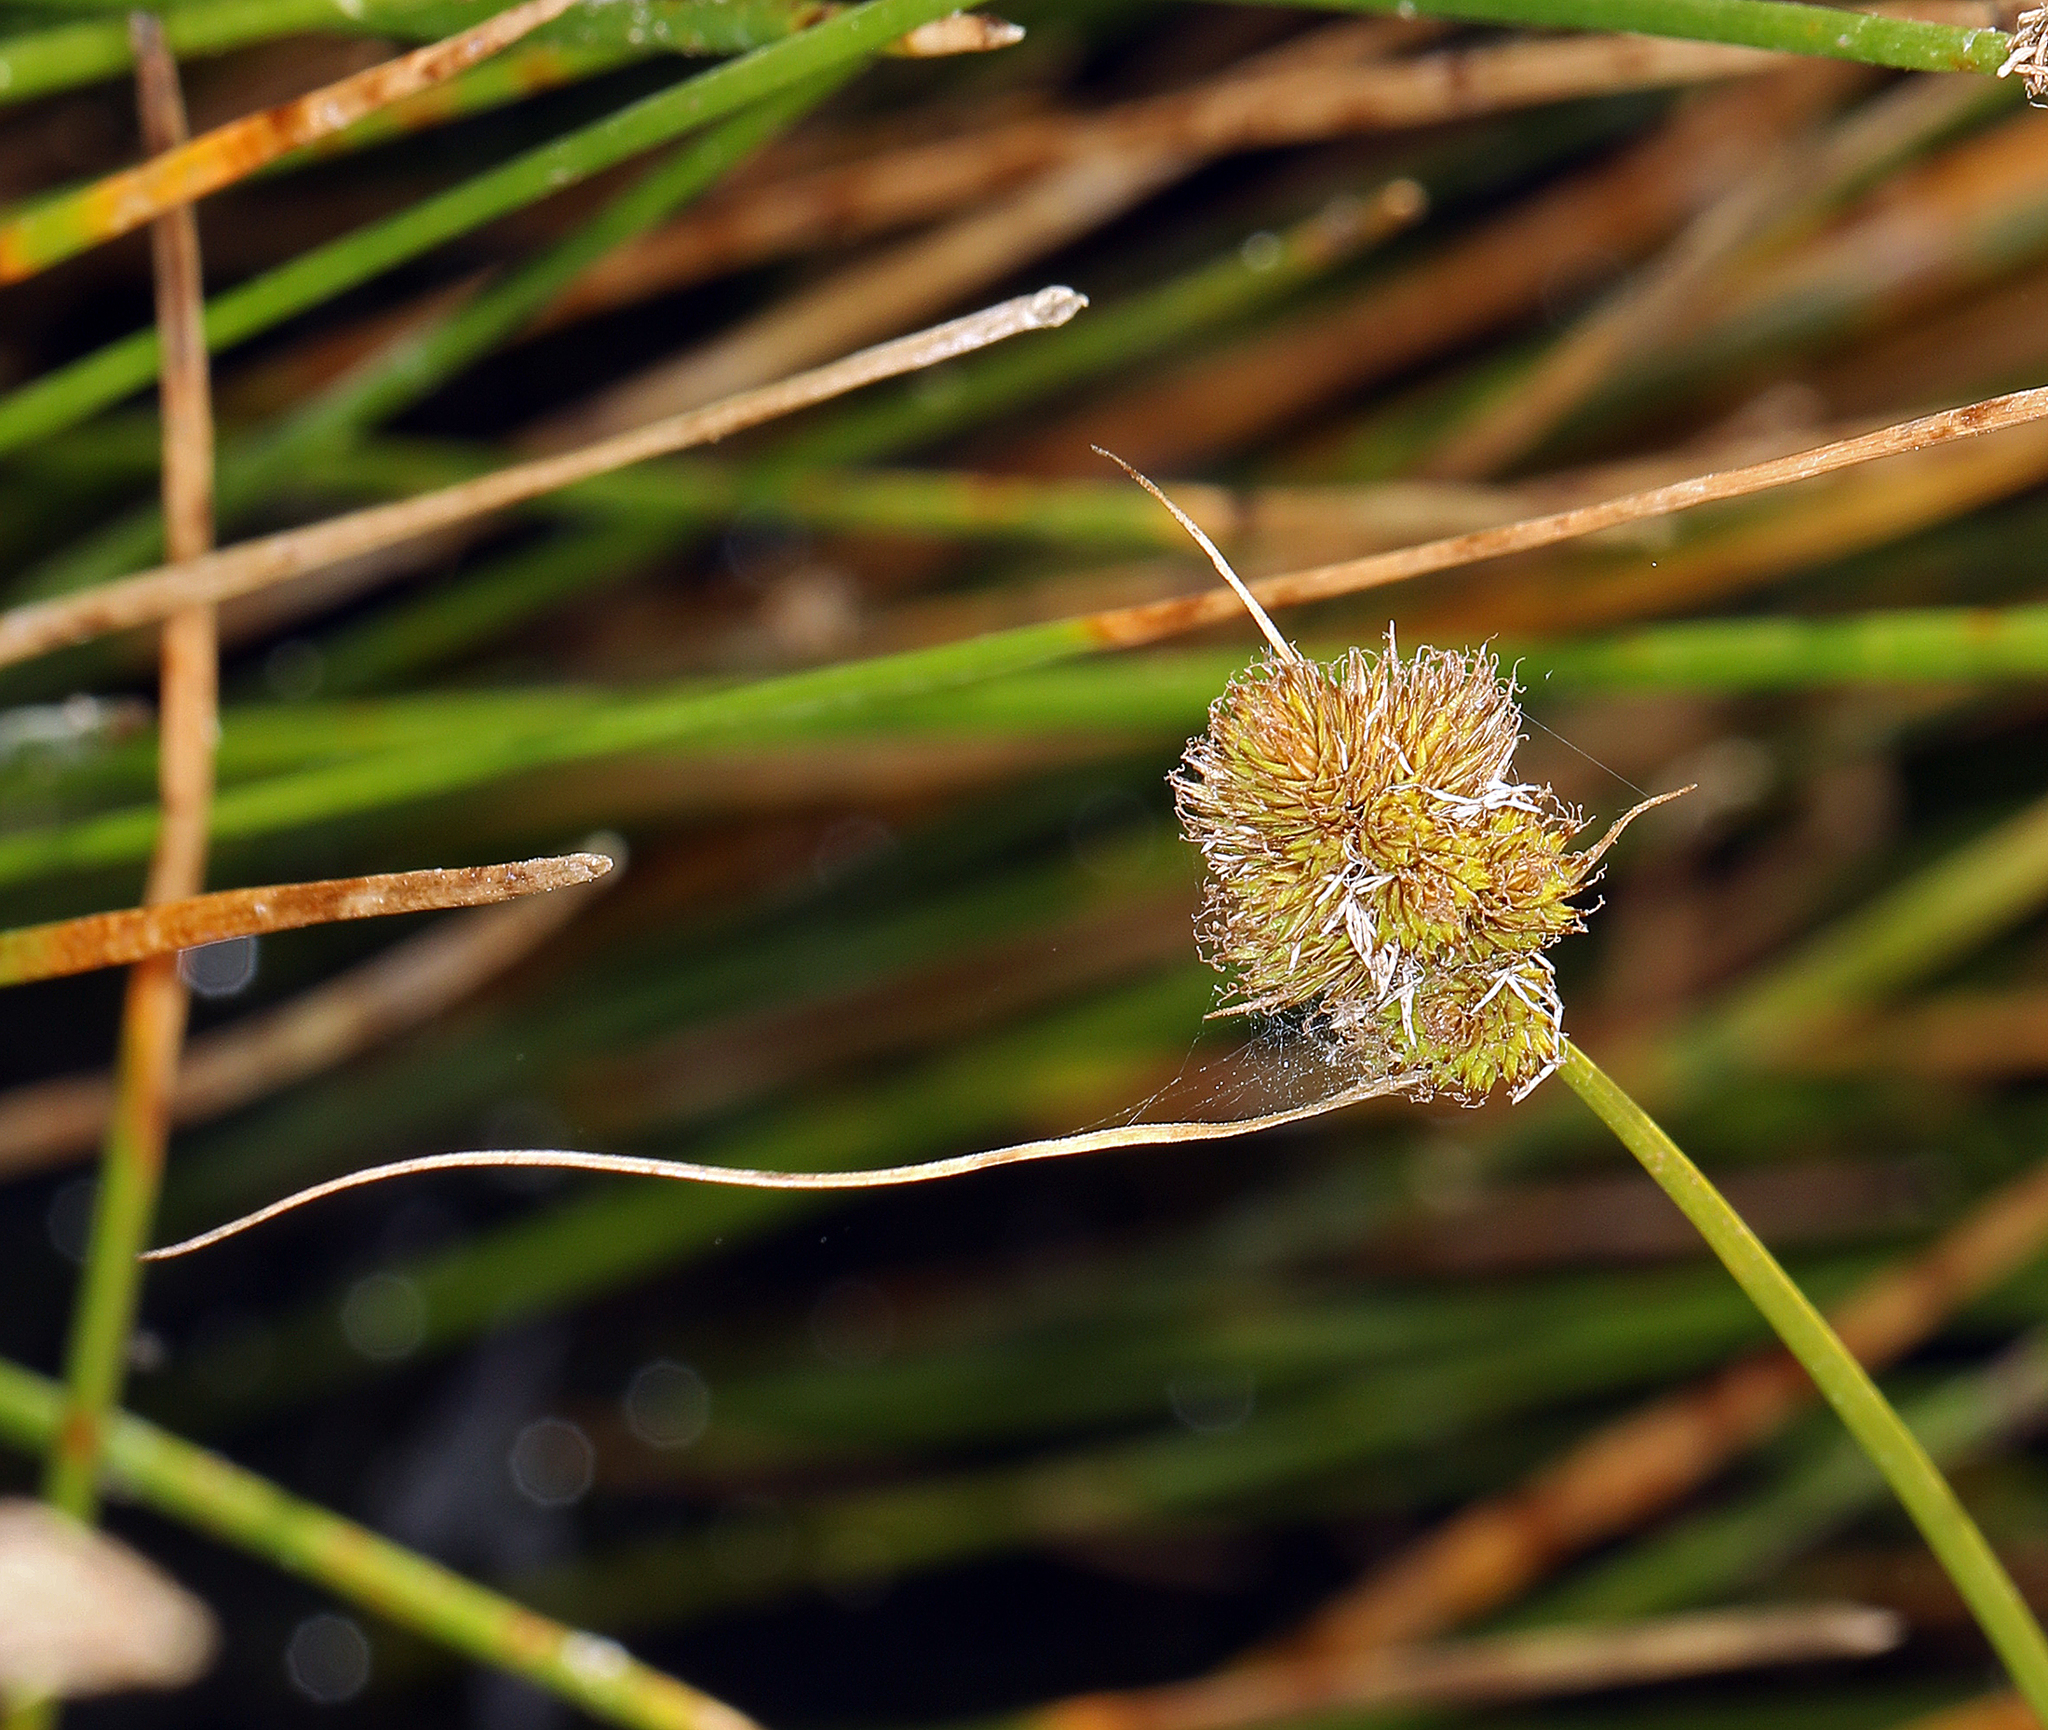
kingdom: Plantae
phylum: Tracheophyta
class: Liliopsida
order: Poales
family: Cyperaceae
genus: Carex
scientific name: Carex athrostachya
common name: Slenderbeak sedge
